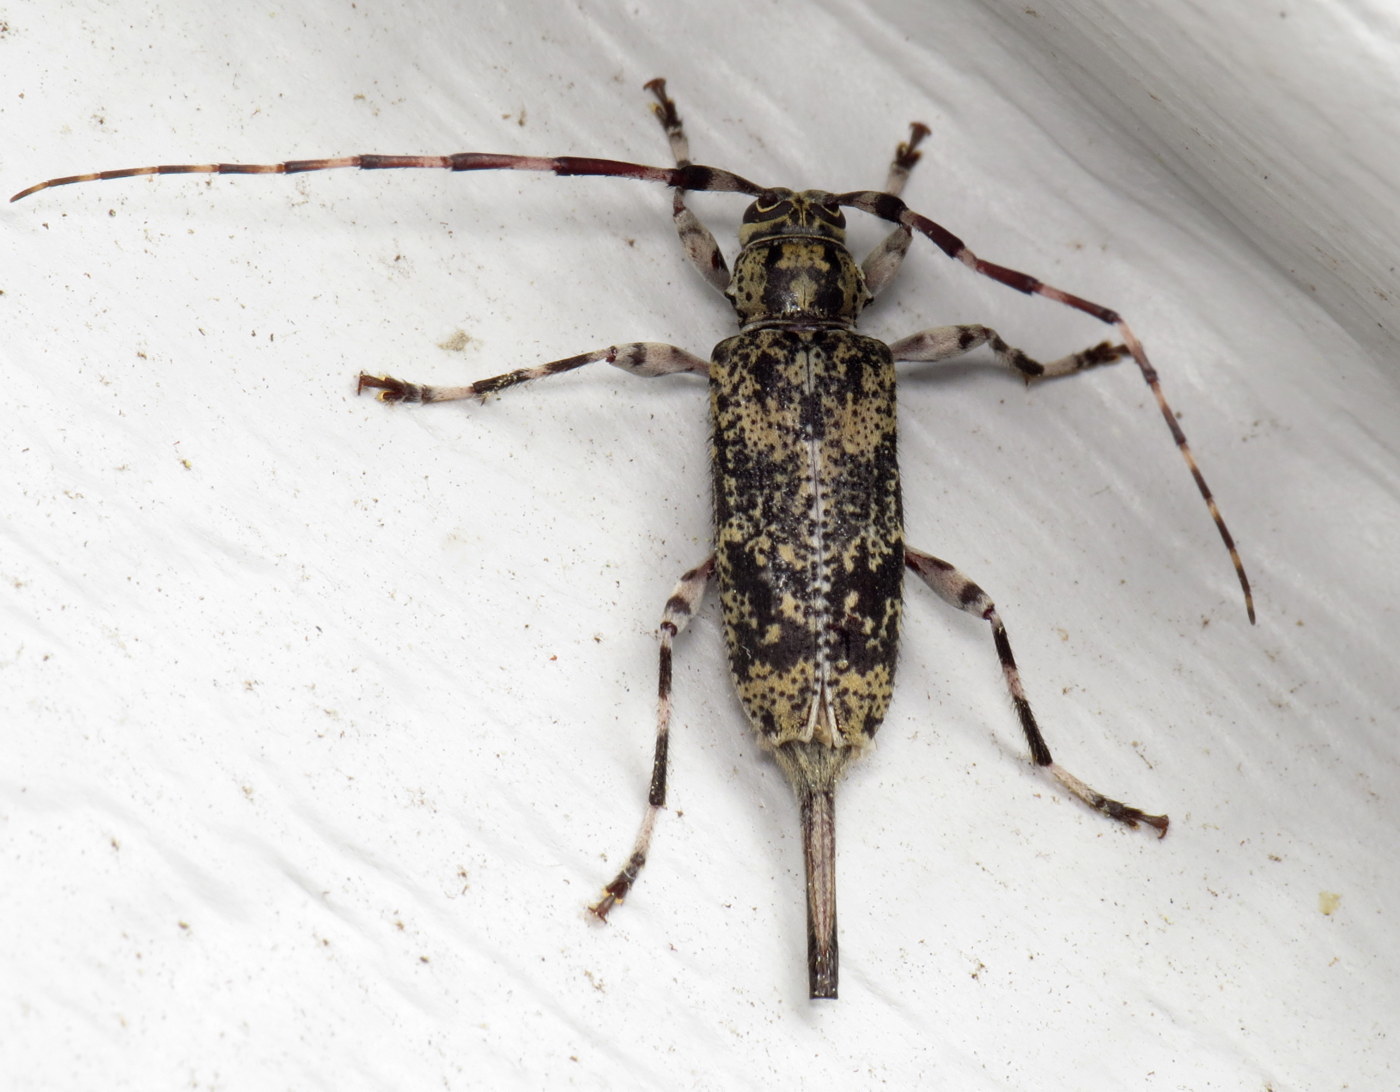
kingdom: Animalia
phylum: Arthropoda
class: Insecta
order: Coleoptera
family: Cerambycidae
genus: Graphisurus
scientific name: Graphisurus fasciatus
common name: Banded graphisurus
